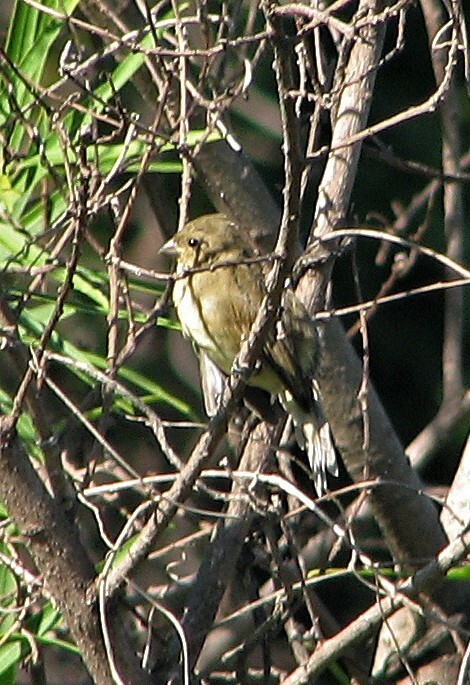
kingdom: Animalia
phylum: Chordata
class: Aves
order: Passeriformes
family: Thraupidae
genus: Sporophila
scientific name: Sporophila hypoxantha
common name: Tawny-bellied seedeater
